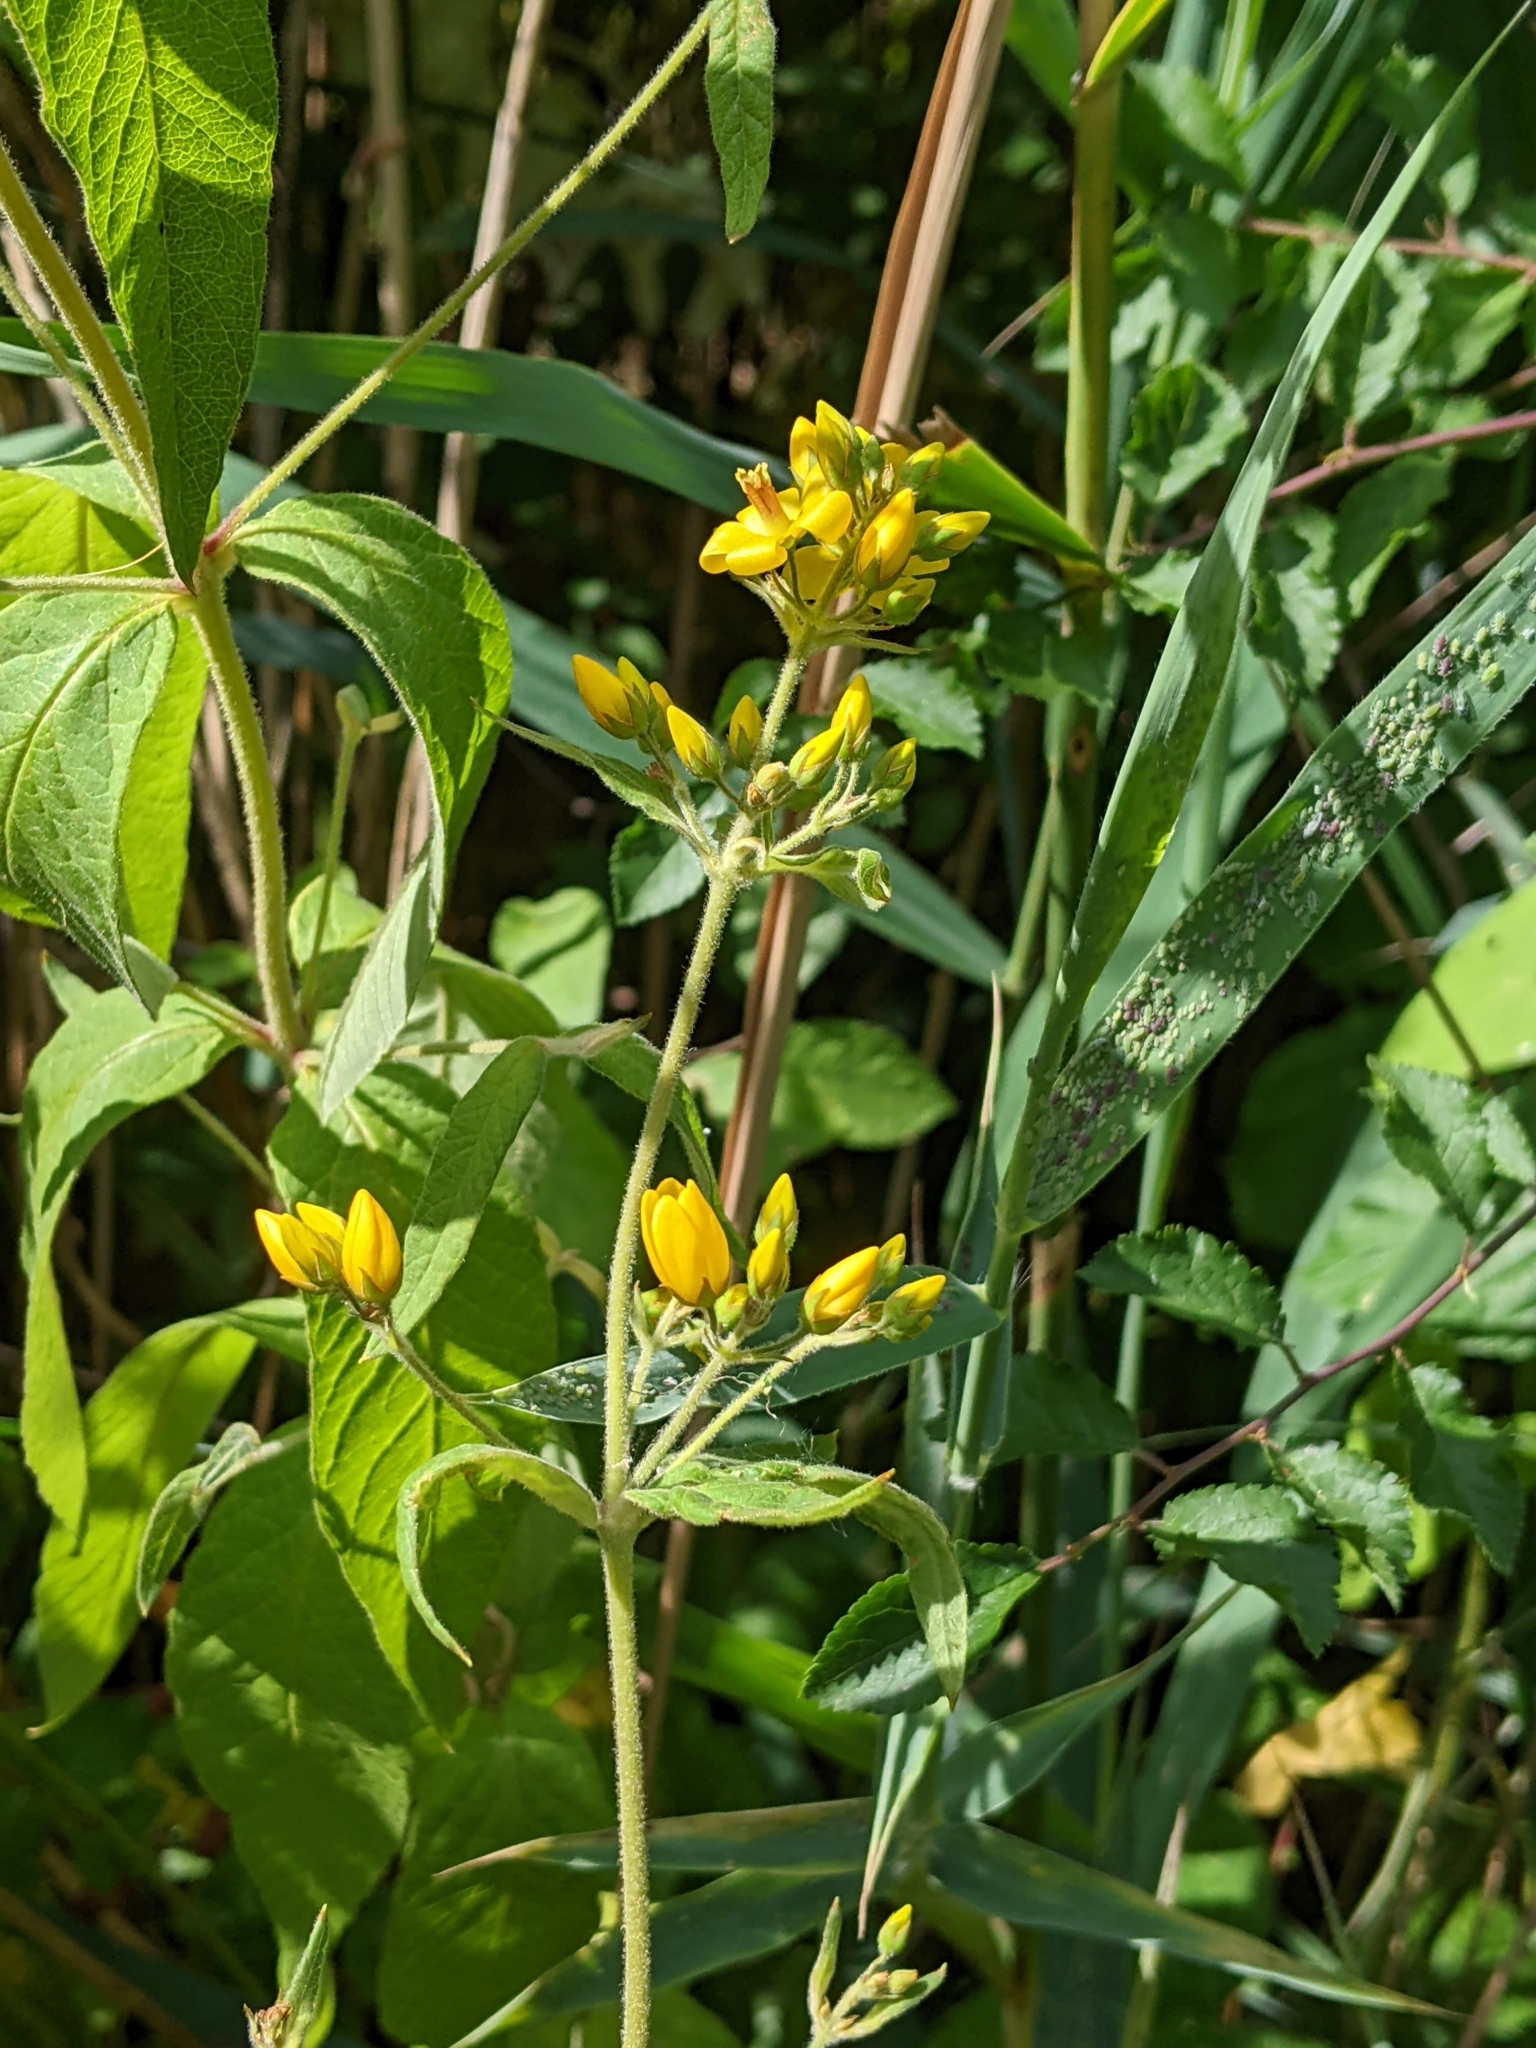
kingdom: Plantae
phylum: Tracheophyta
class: Magnoliopsida
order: Ericales
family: Primulaceae
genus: Lysimachia
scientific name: Lysimachia vulgaris
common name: Yellow loosestrife
